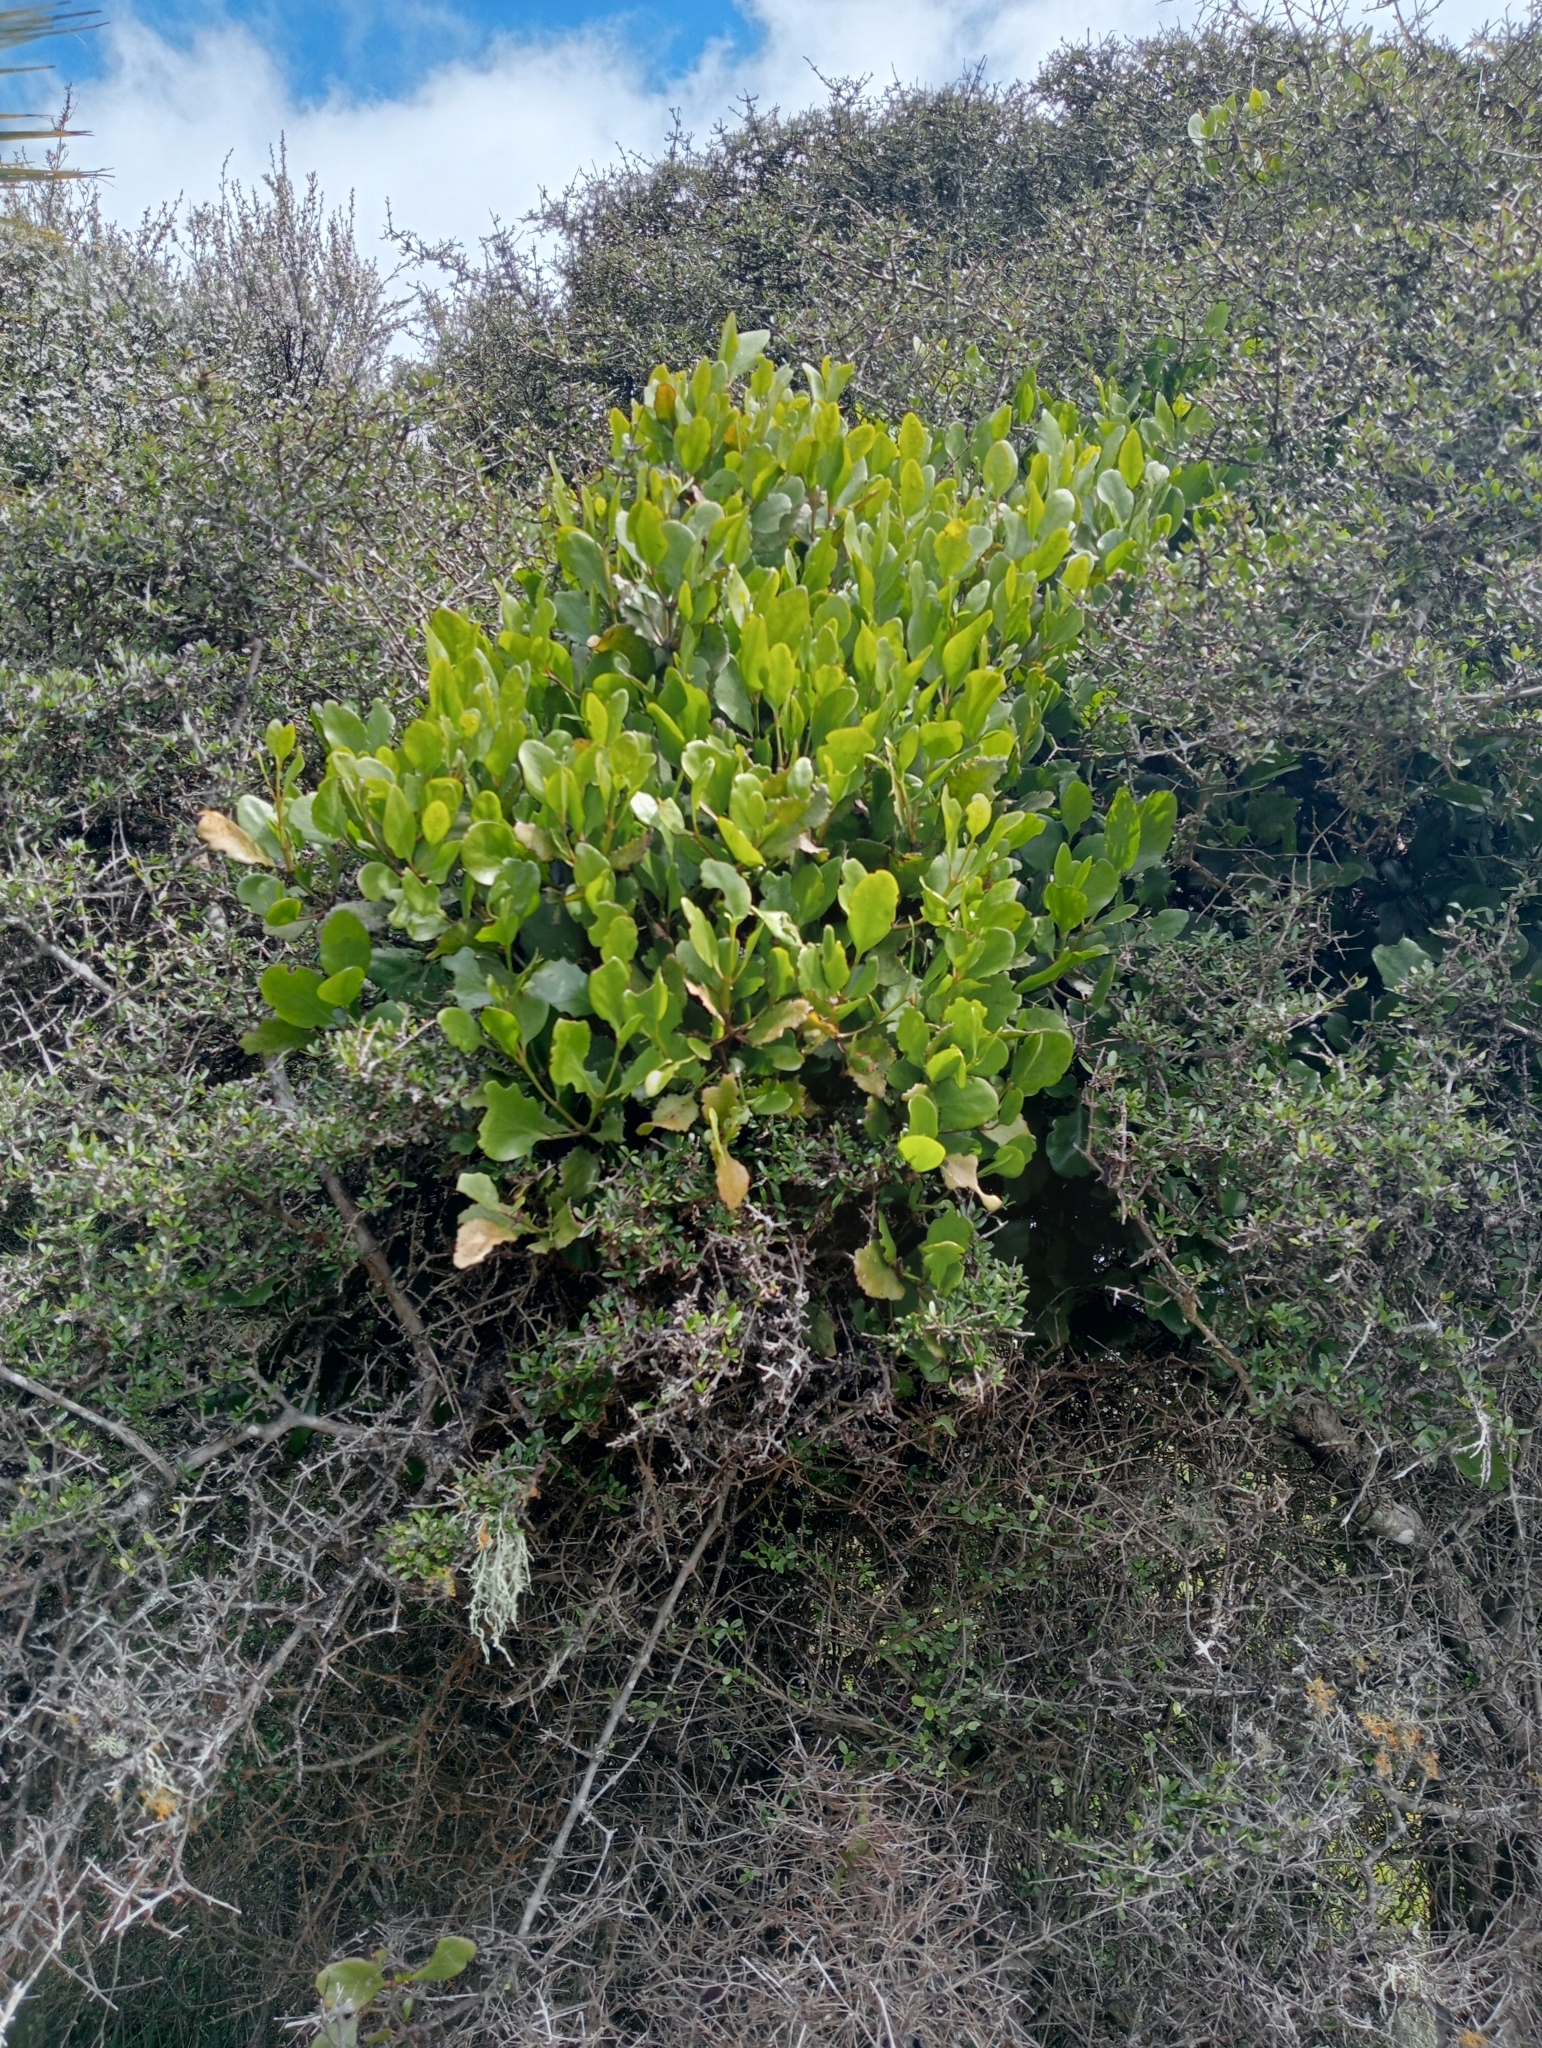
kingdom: Plantae
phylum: Tracheophyta
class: Magnoliopsida
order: Santalales
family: Loranthaceae
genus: Ileostylus
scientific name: Ileostylus micranthus
